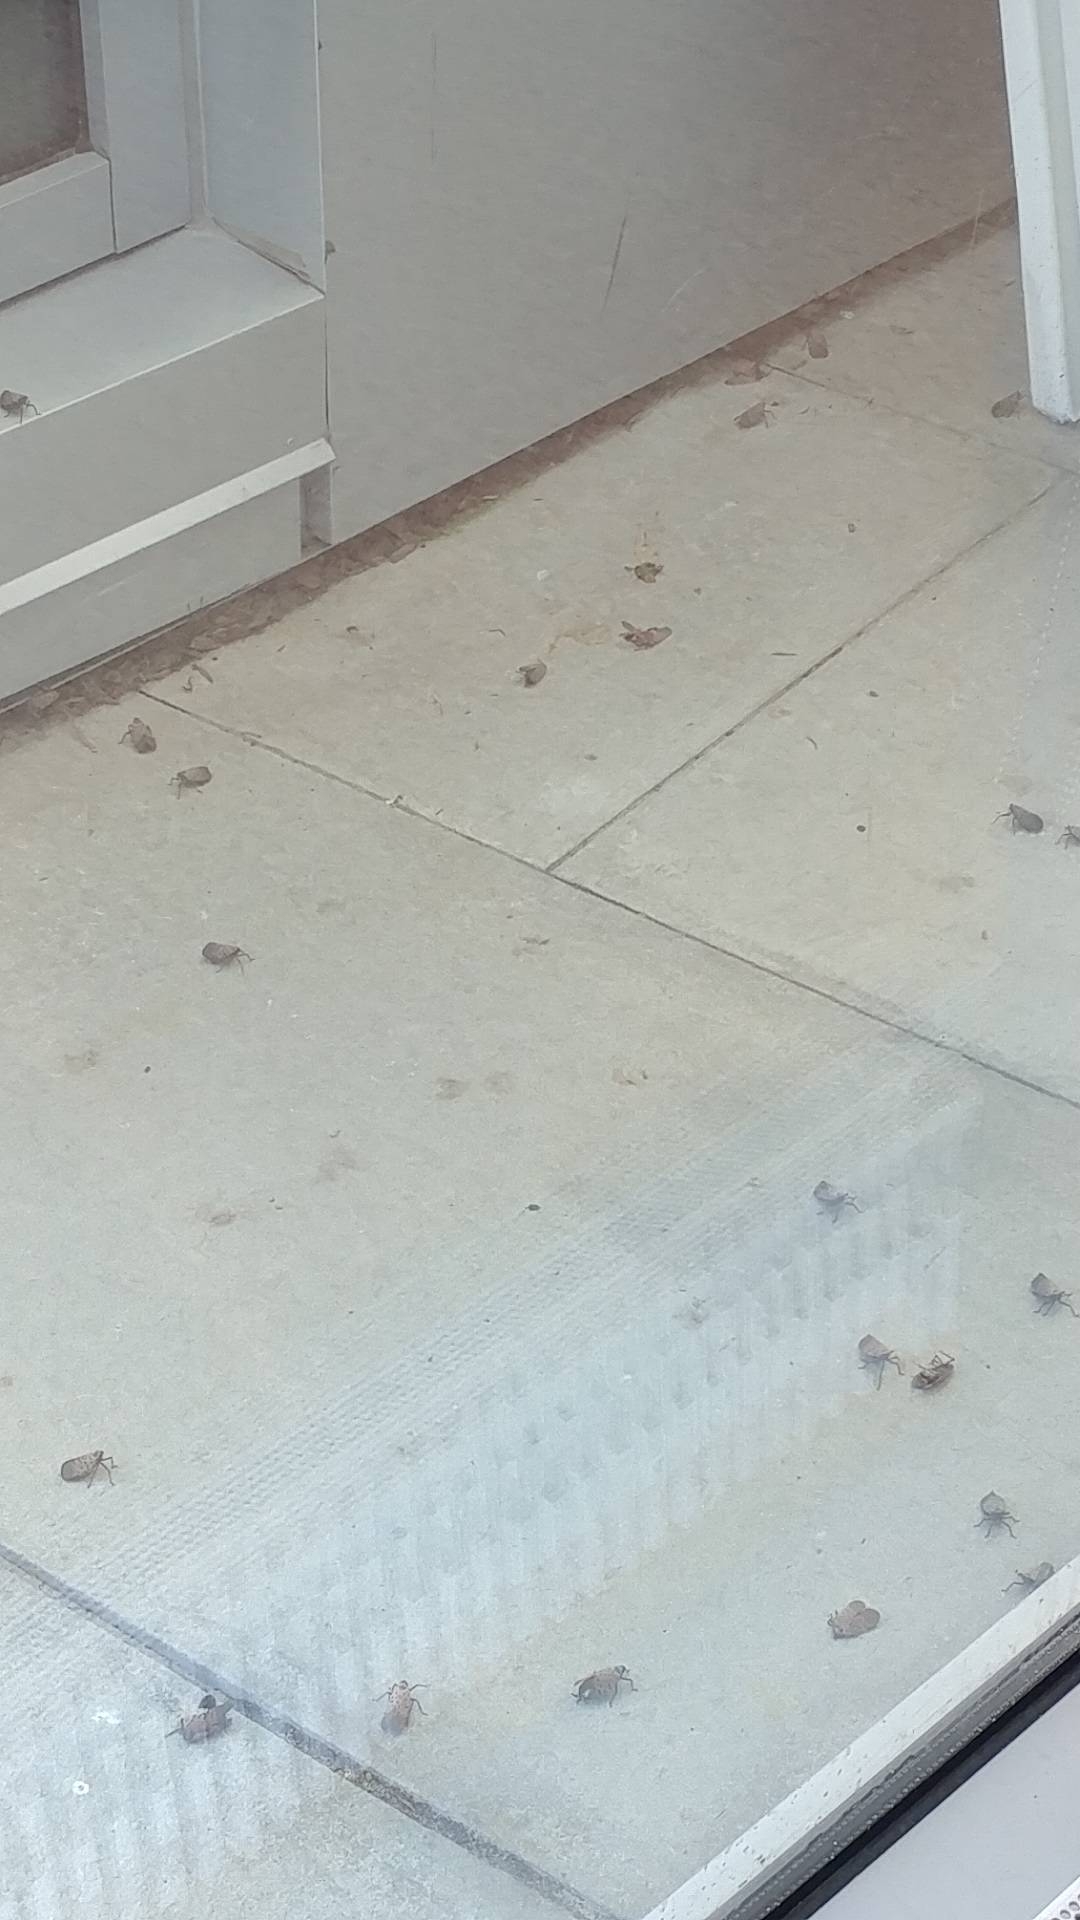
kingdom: Animalia
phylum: Arthropoda
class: Insecta
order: Hemiptera
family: Fulgoridae
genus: Lycorma
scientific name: Lycorma delicatula
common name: Spotted lanternfly
